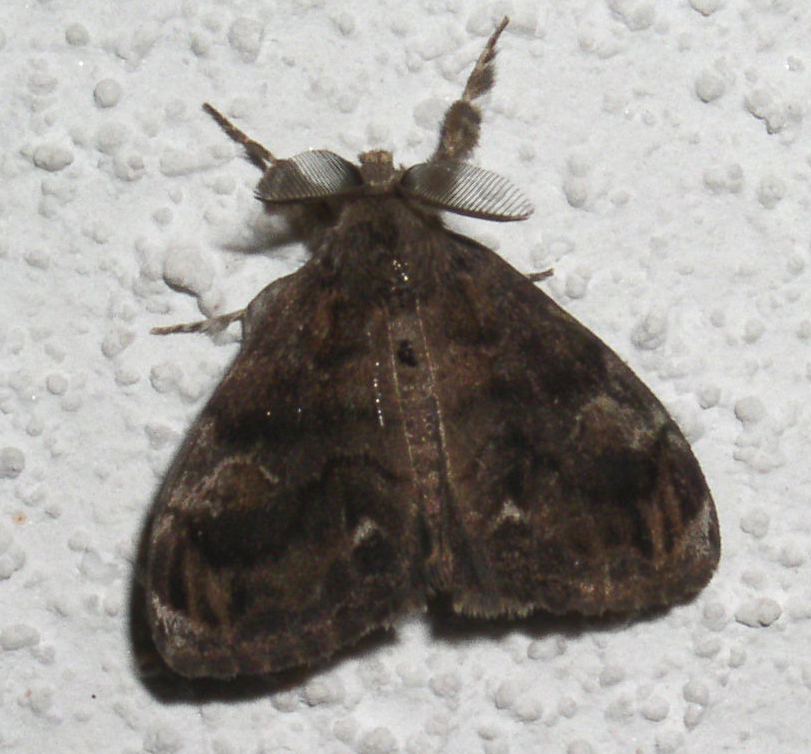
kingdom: Animalia
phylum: Arthropoda
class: Insecta
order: Lepidoptera
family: Erebidae
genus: Orgyia
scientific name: Orgyia definita
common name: Definite tussock moth
